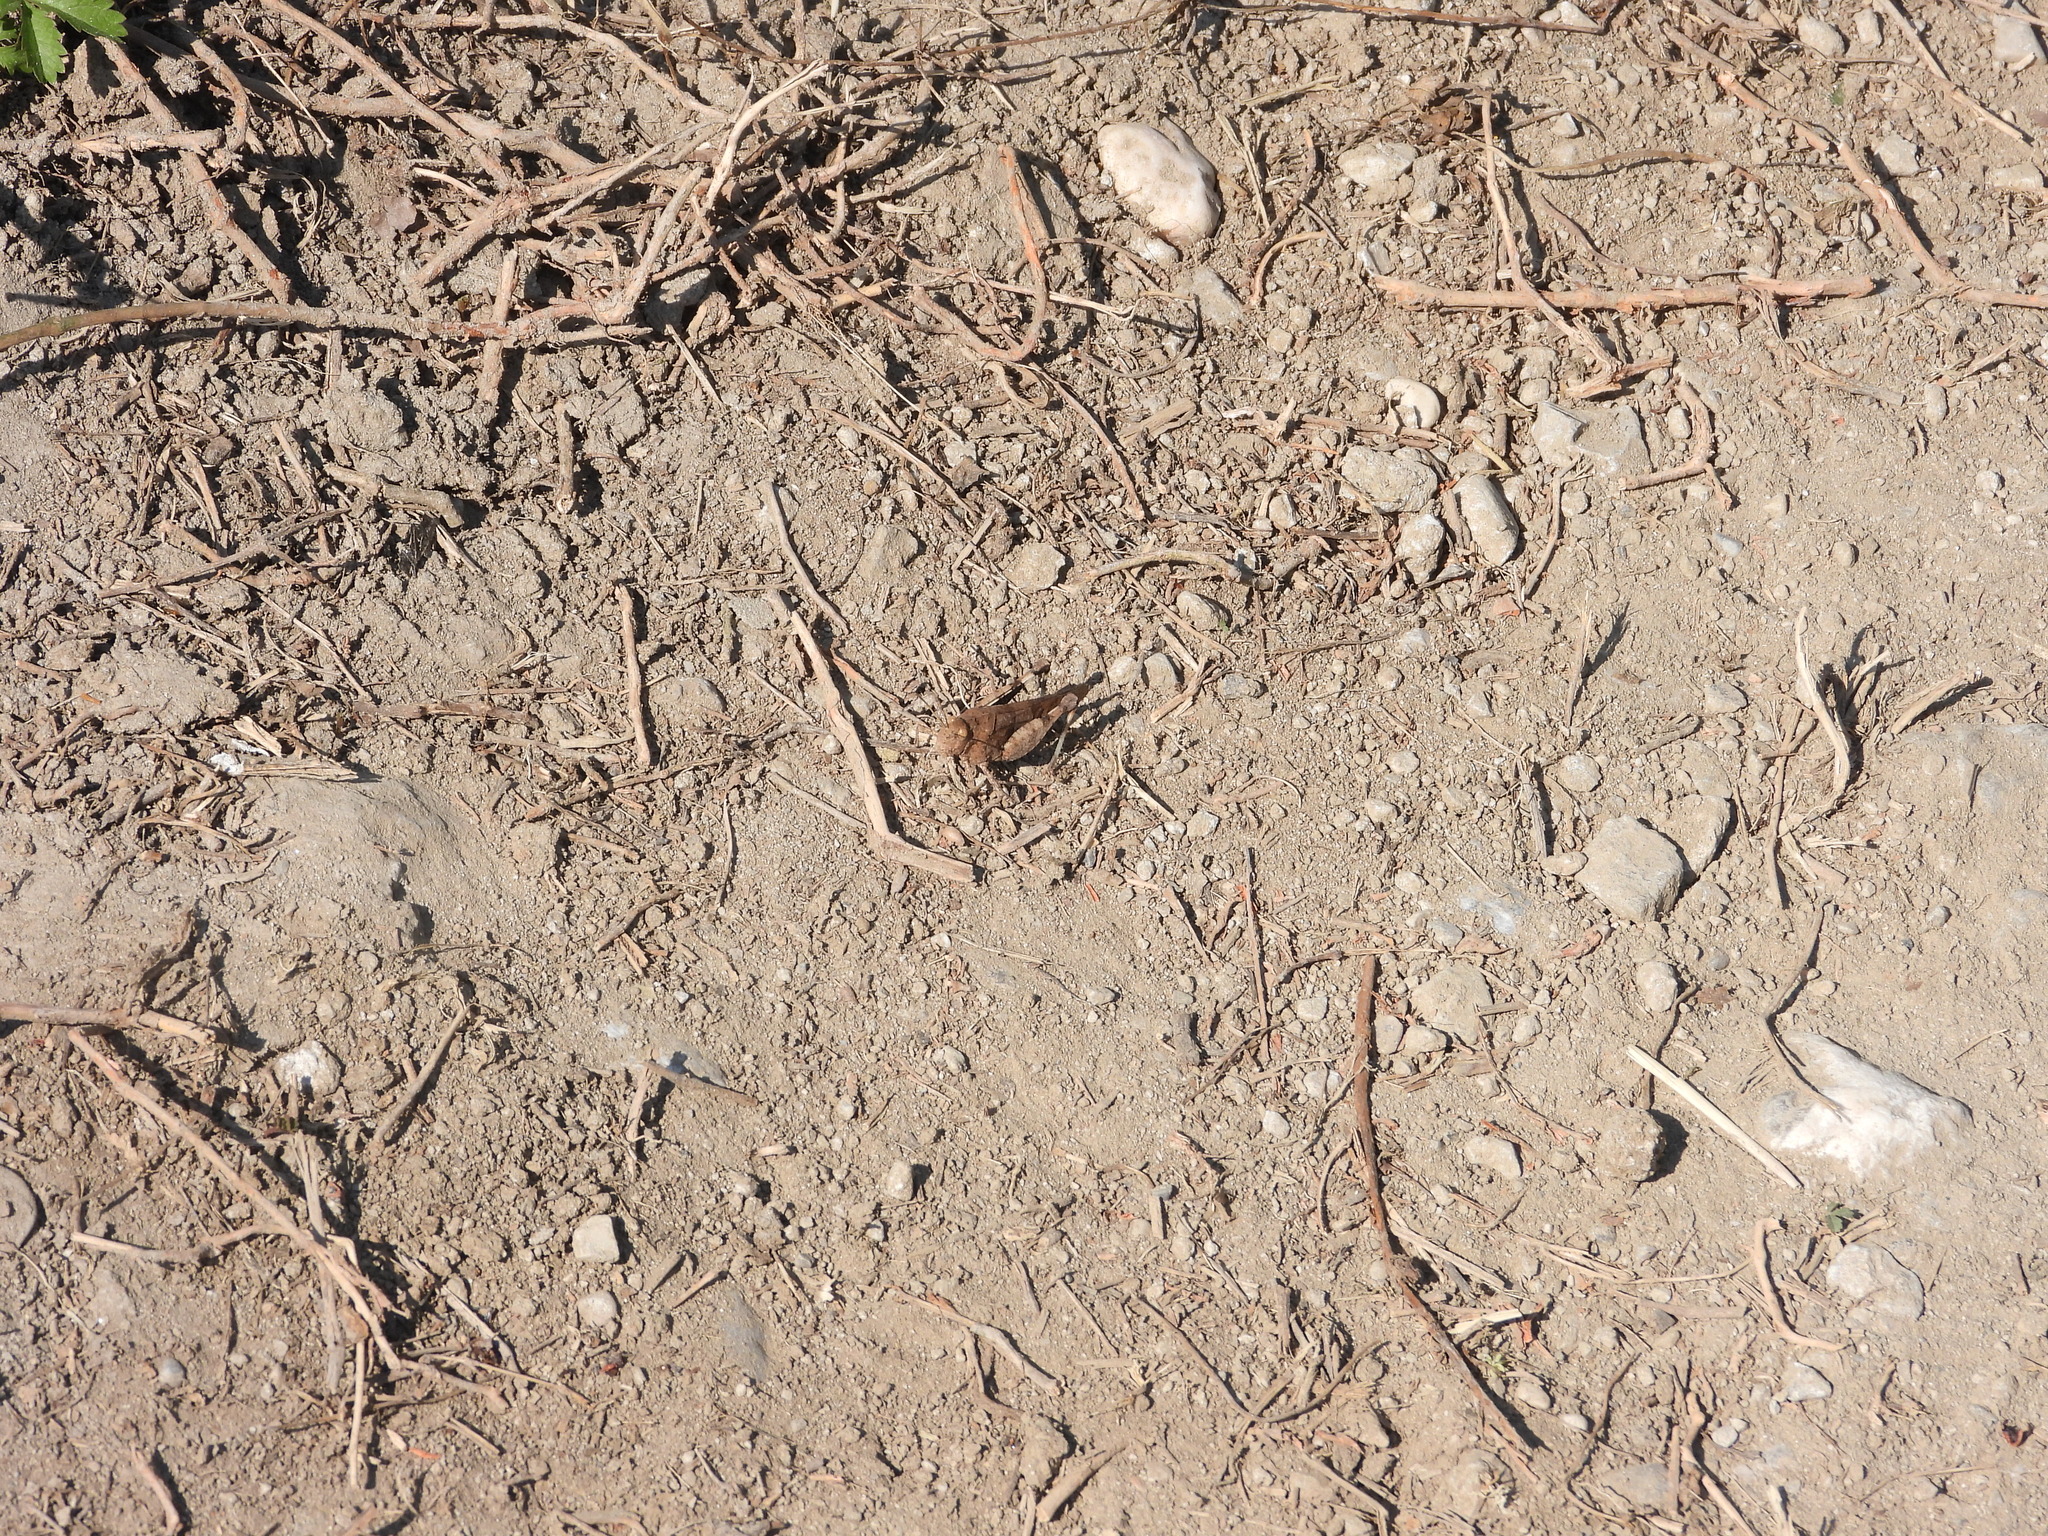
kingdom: Animalia
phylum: Arthropoda
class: Insecta
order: Orthoptera
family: Acrididae
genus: Oedipoda
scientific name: Oedipoda caerulescens
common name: Blue-winged grasshopper
